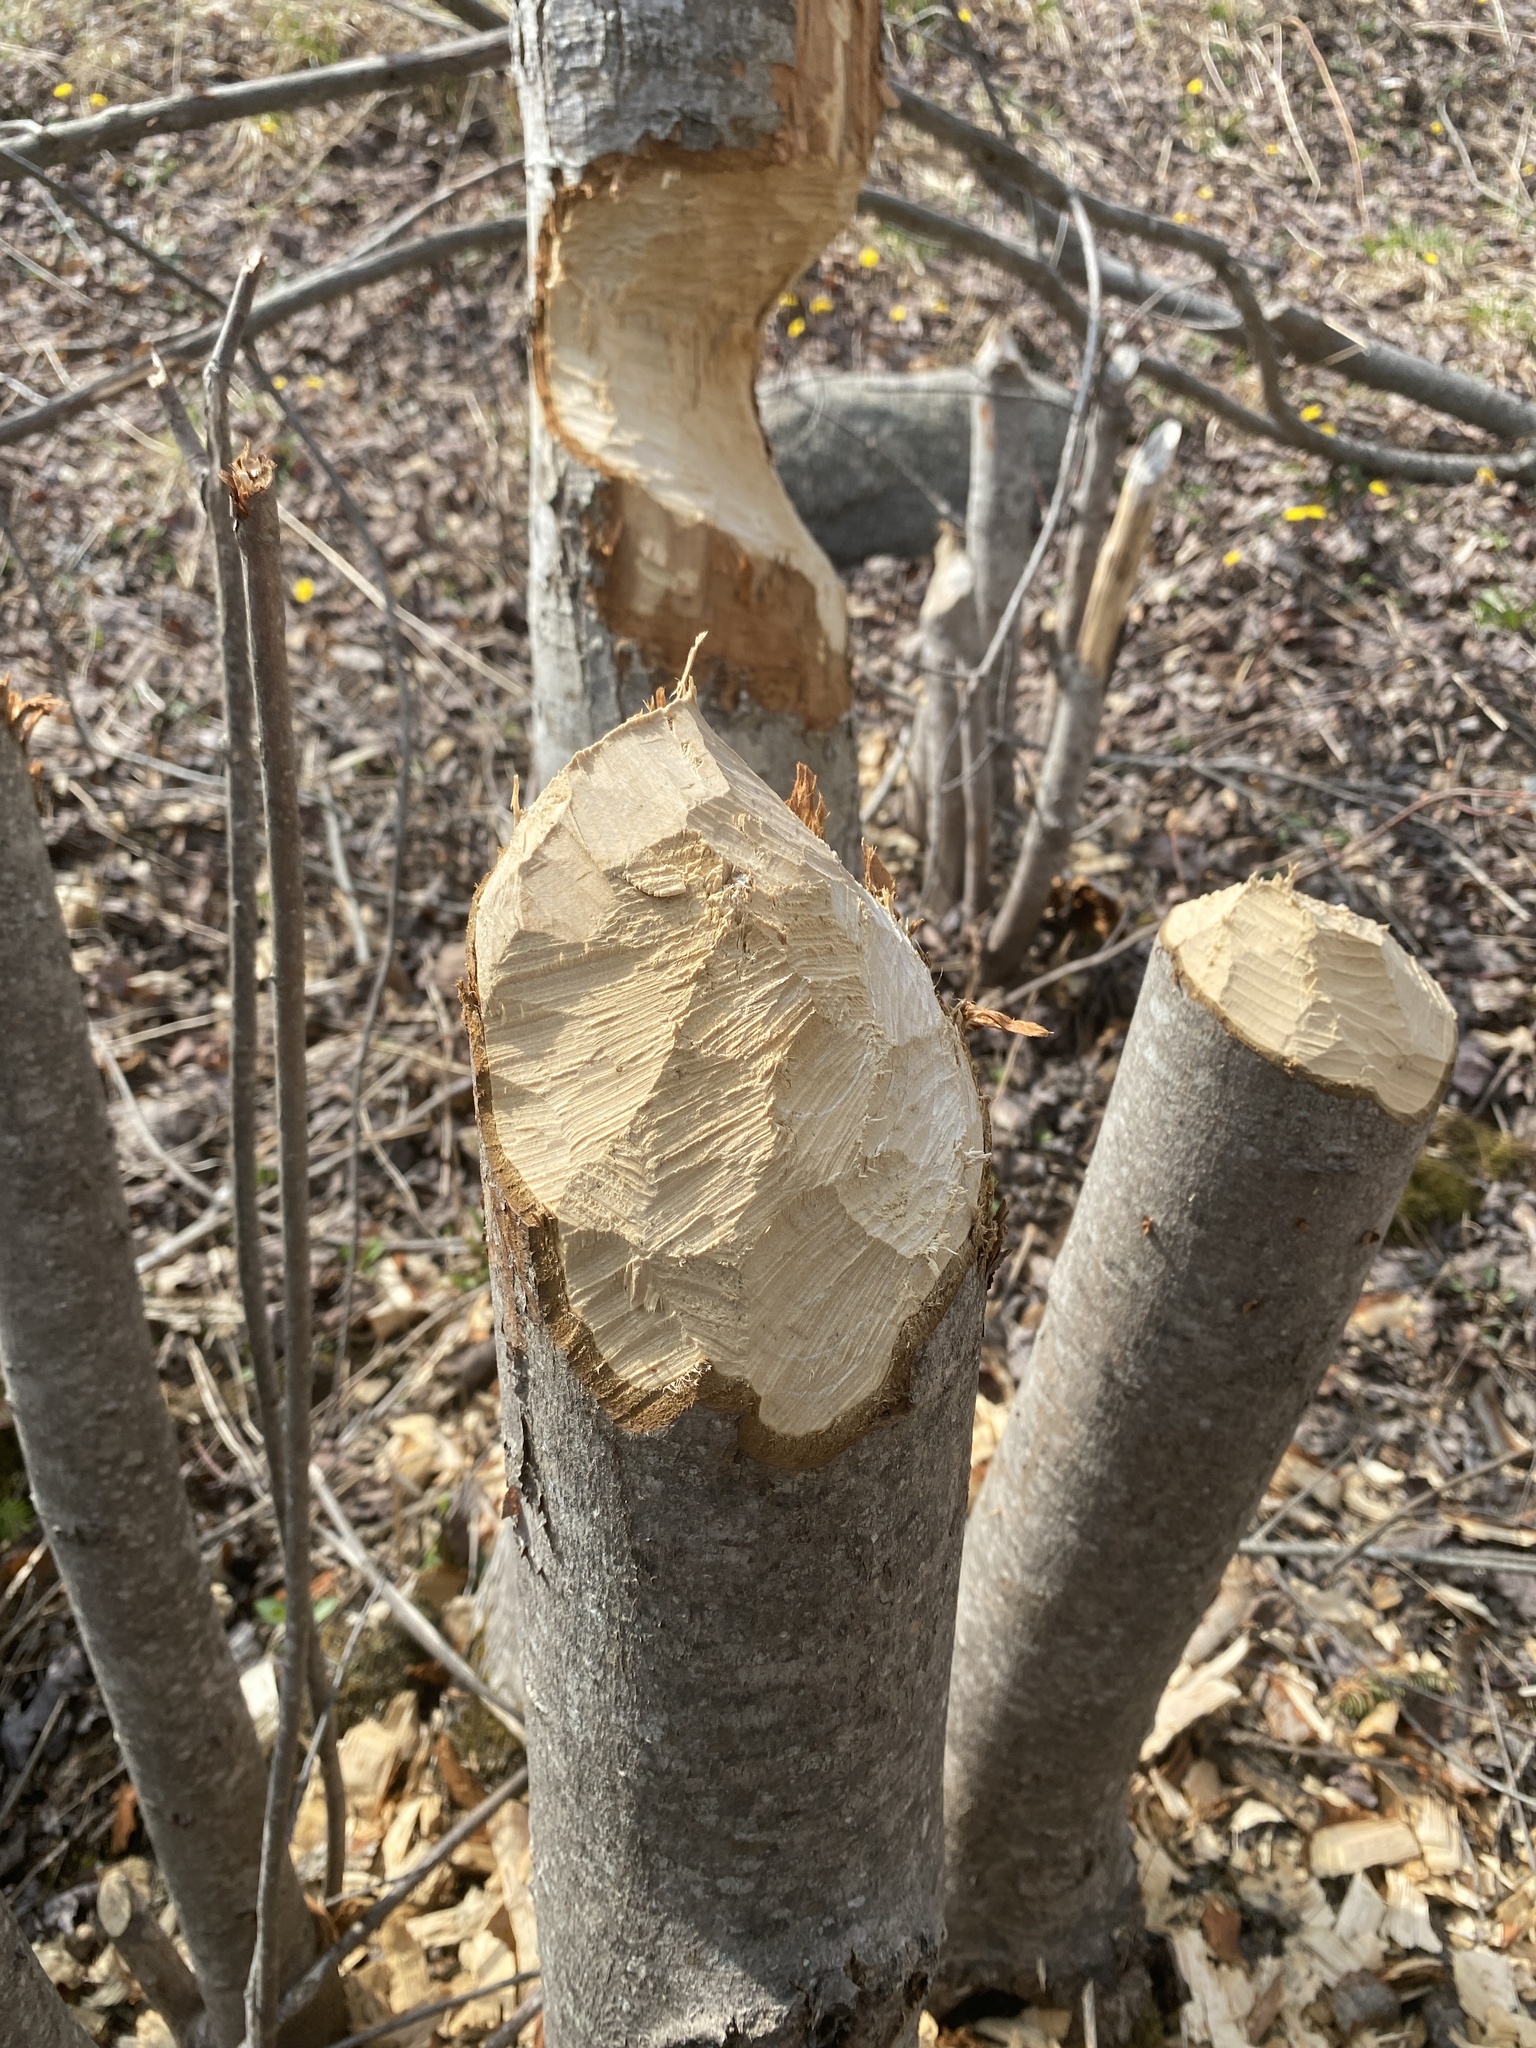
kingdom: Animalia
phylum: Chordata
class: Mammalia
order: Rodentia
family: Castoridae
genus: Castor
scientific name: Castor canadensis
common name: American beaver
